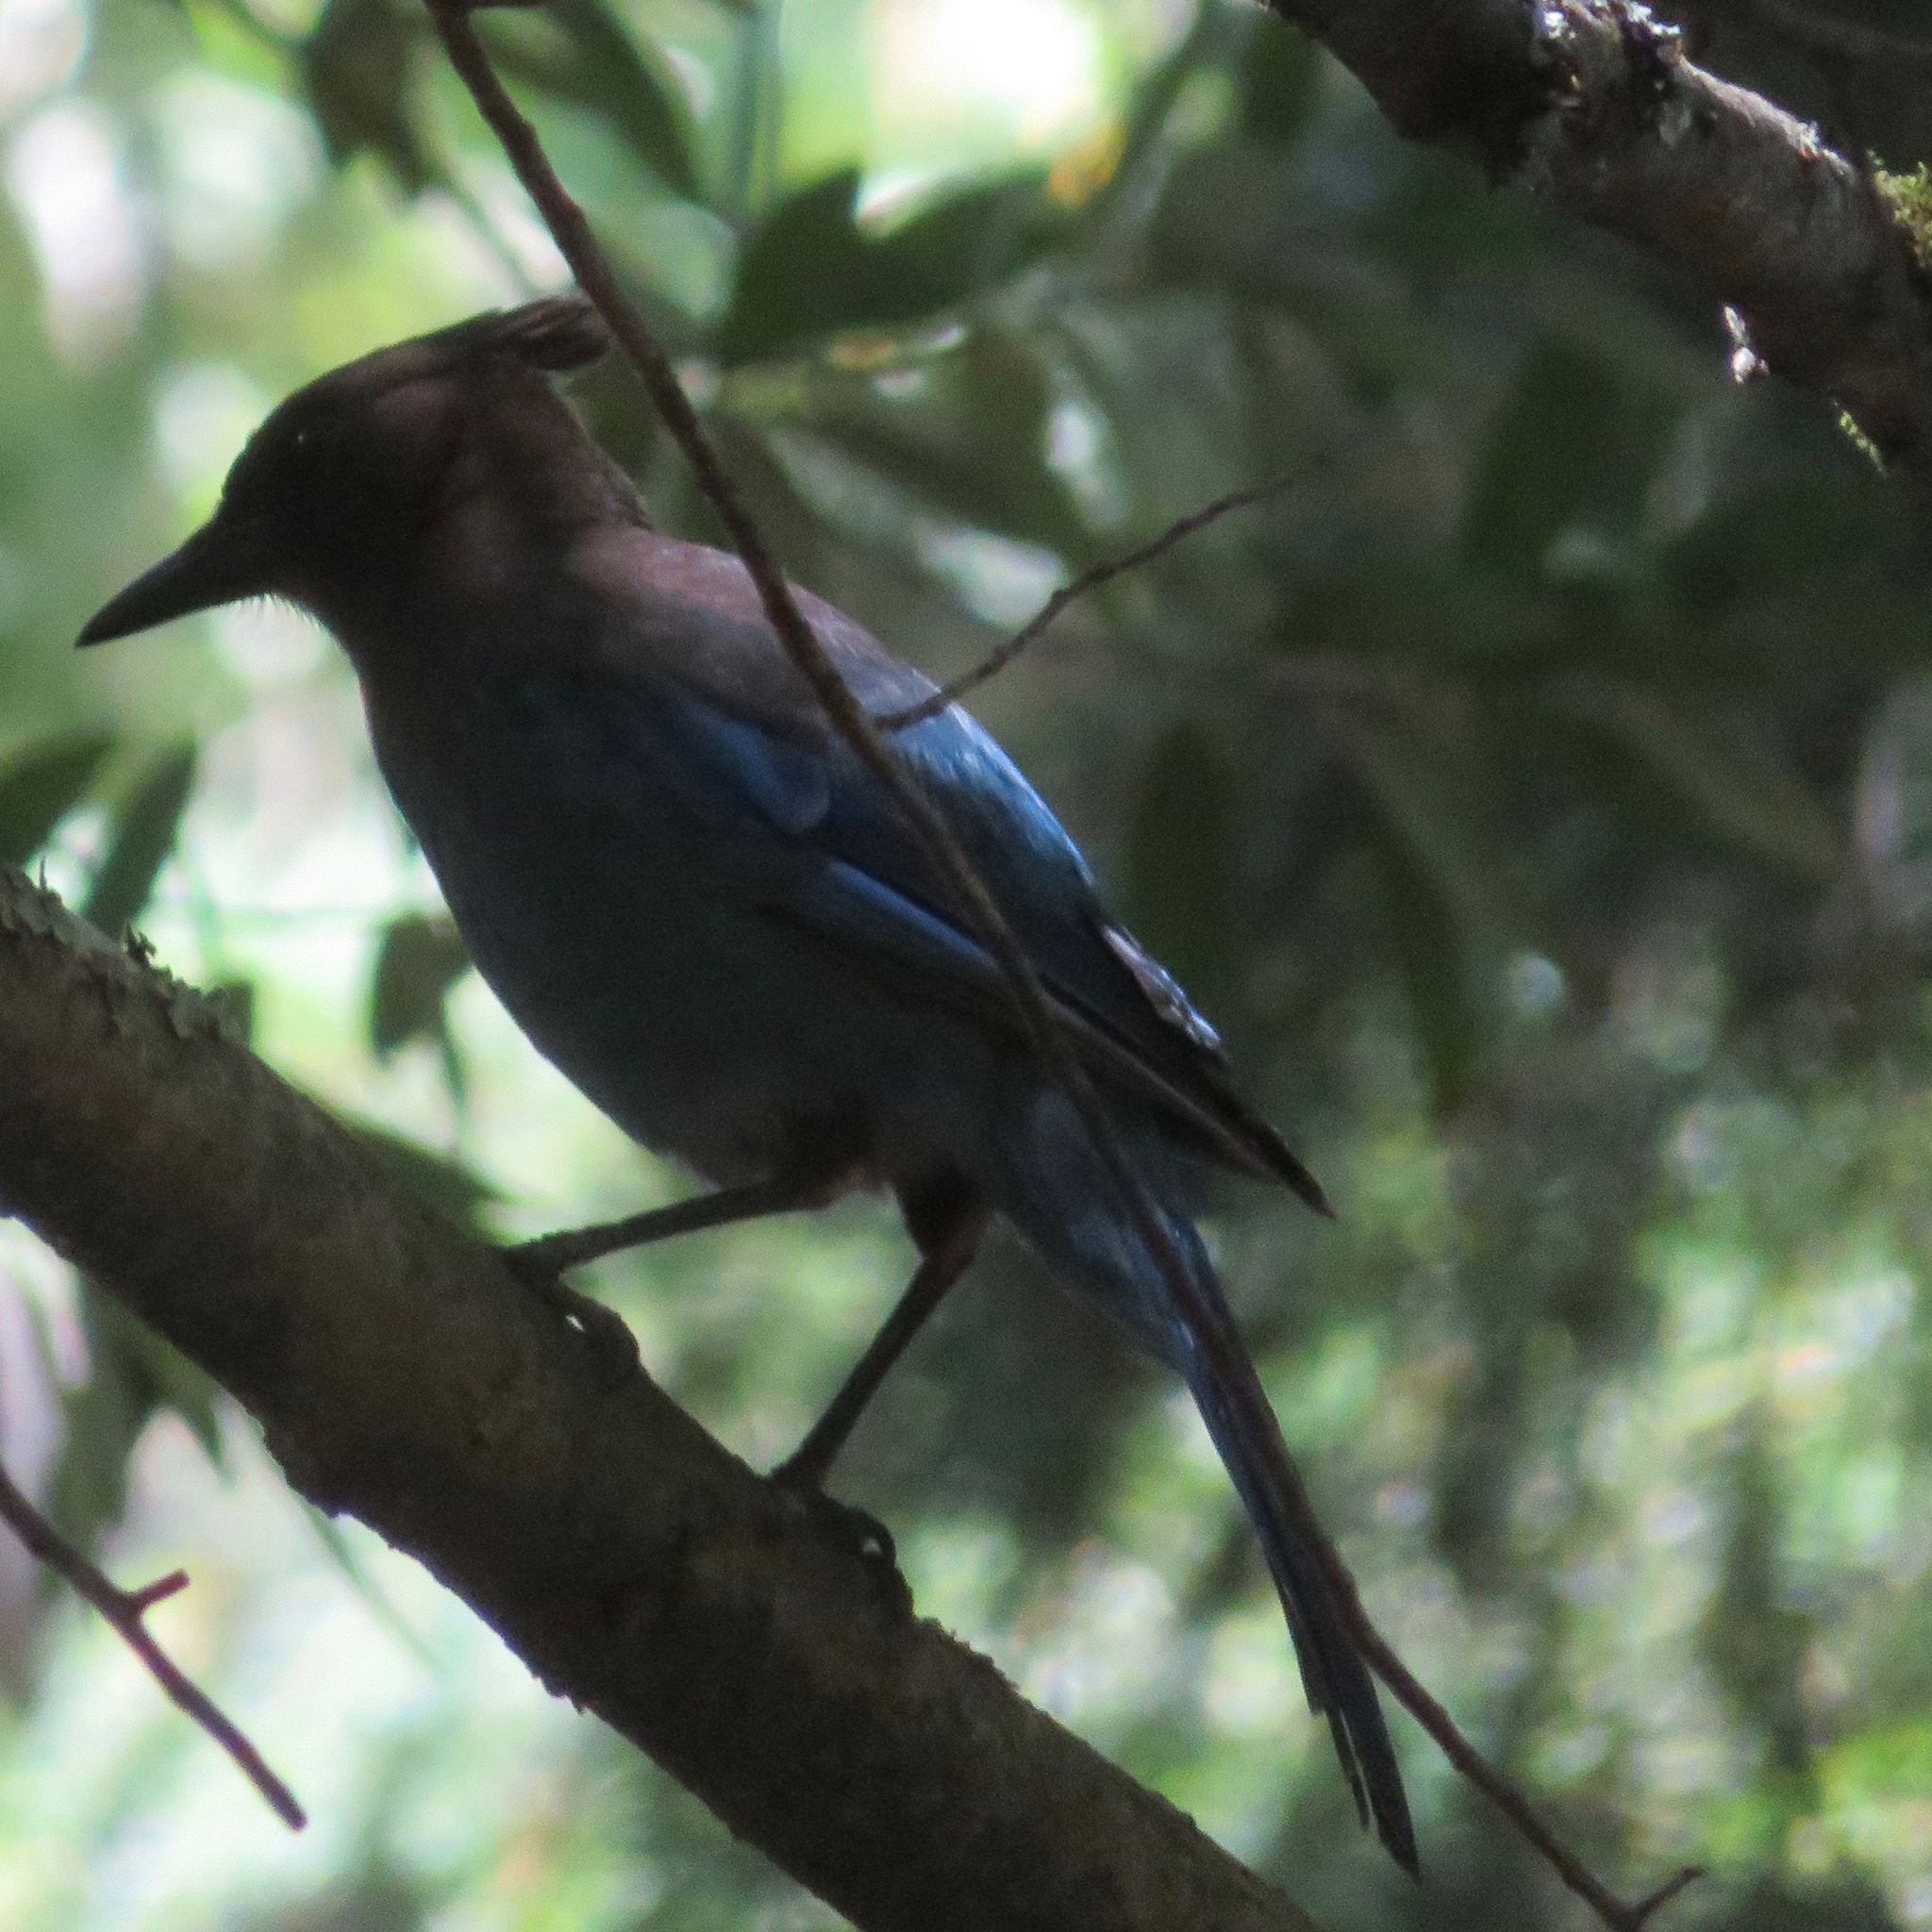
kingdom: Animalia
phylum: Chordata
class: Aves
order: Passeriformes
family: Corvidae
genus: Cyanocitta
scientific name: Cyanocitta stelleri
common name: Steller's jay
